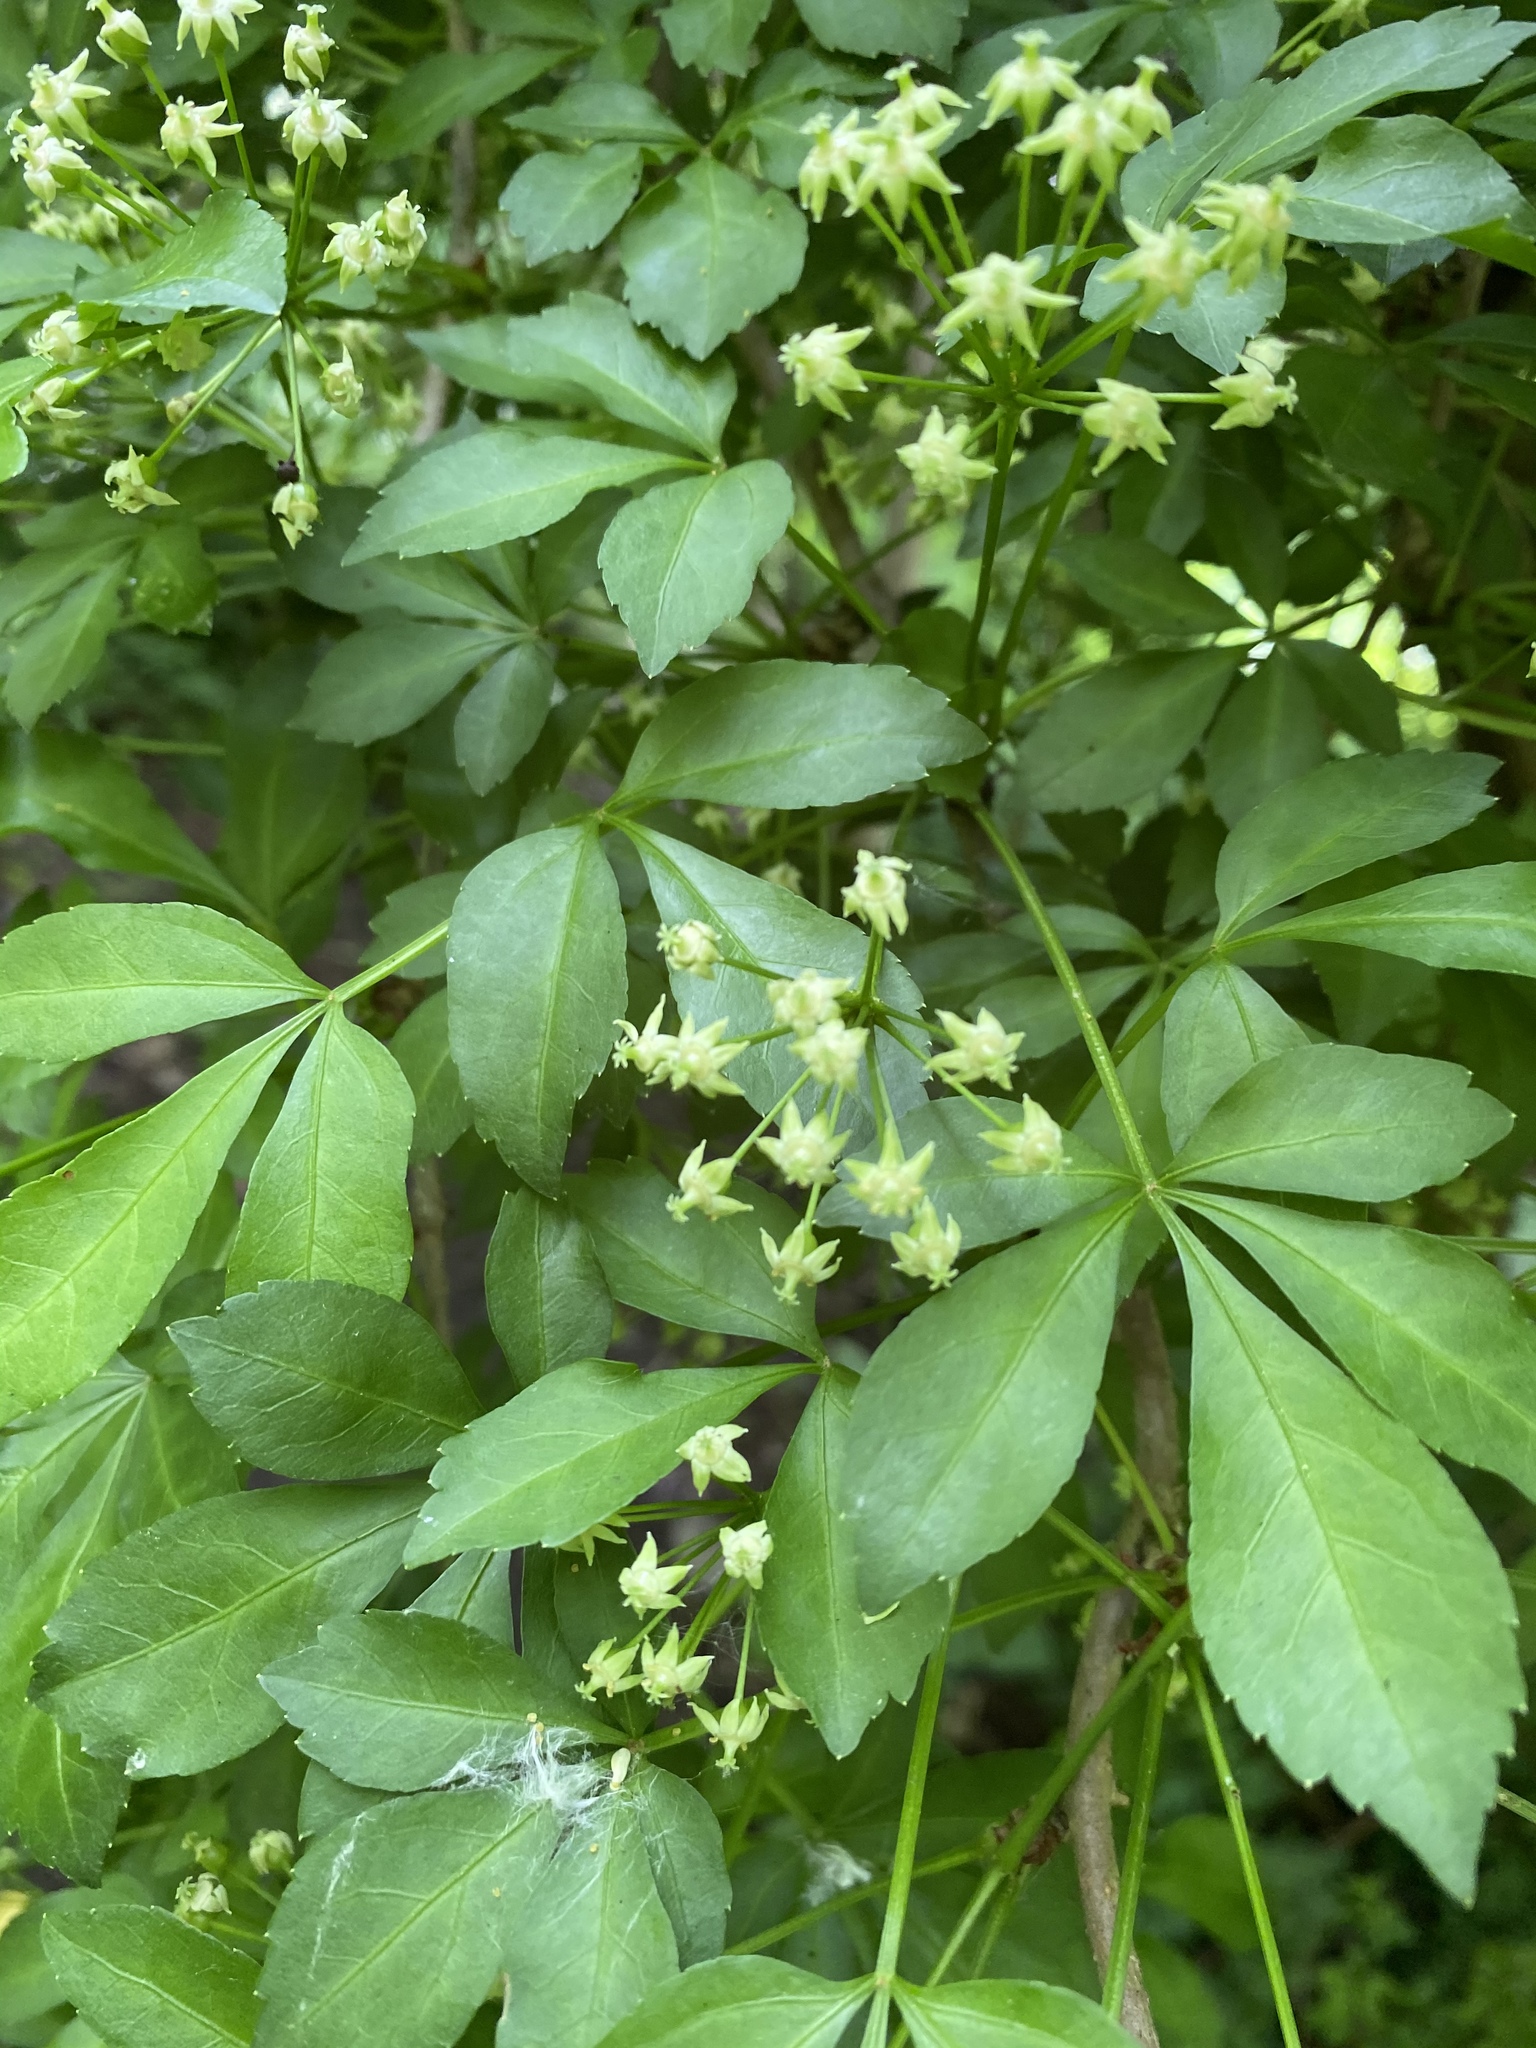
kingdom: Plantae
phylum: Tracheophyta
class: Magnoliopsida
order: Apiales
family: Araliaceae
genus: Eleutherococcus
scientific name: Eleutherococcus sieboldianus
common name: Ginseng
